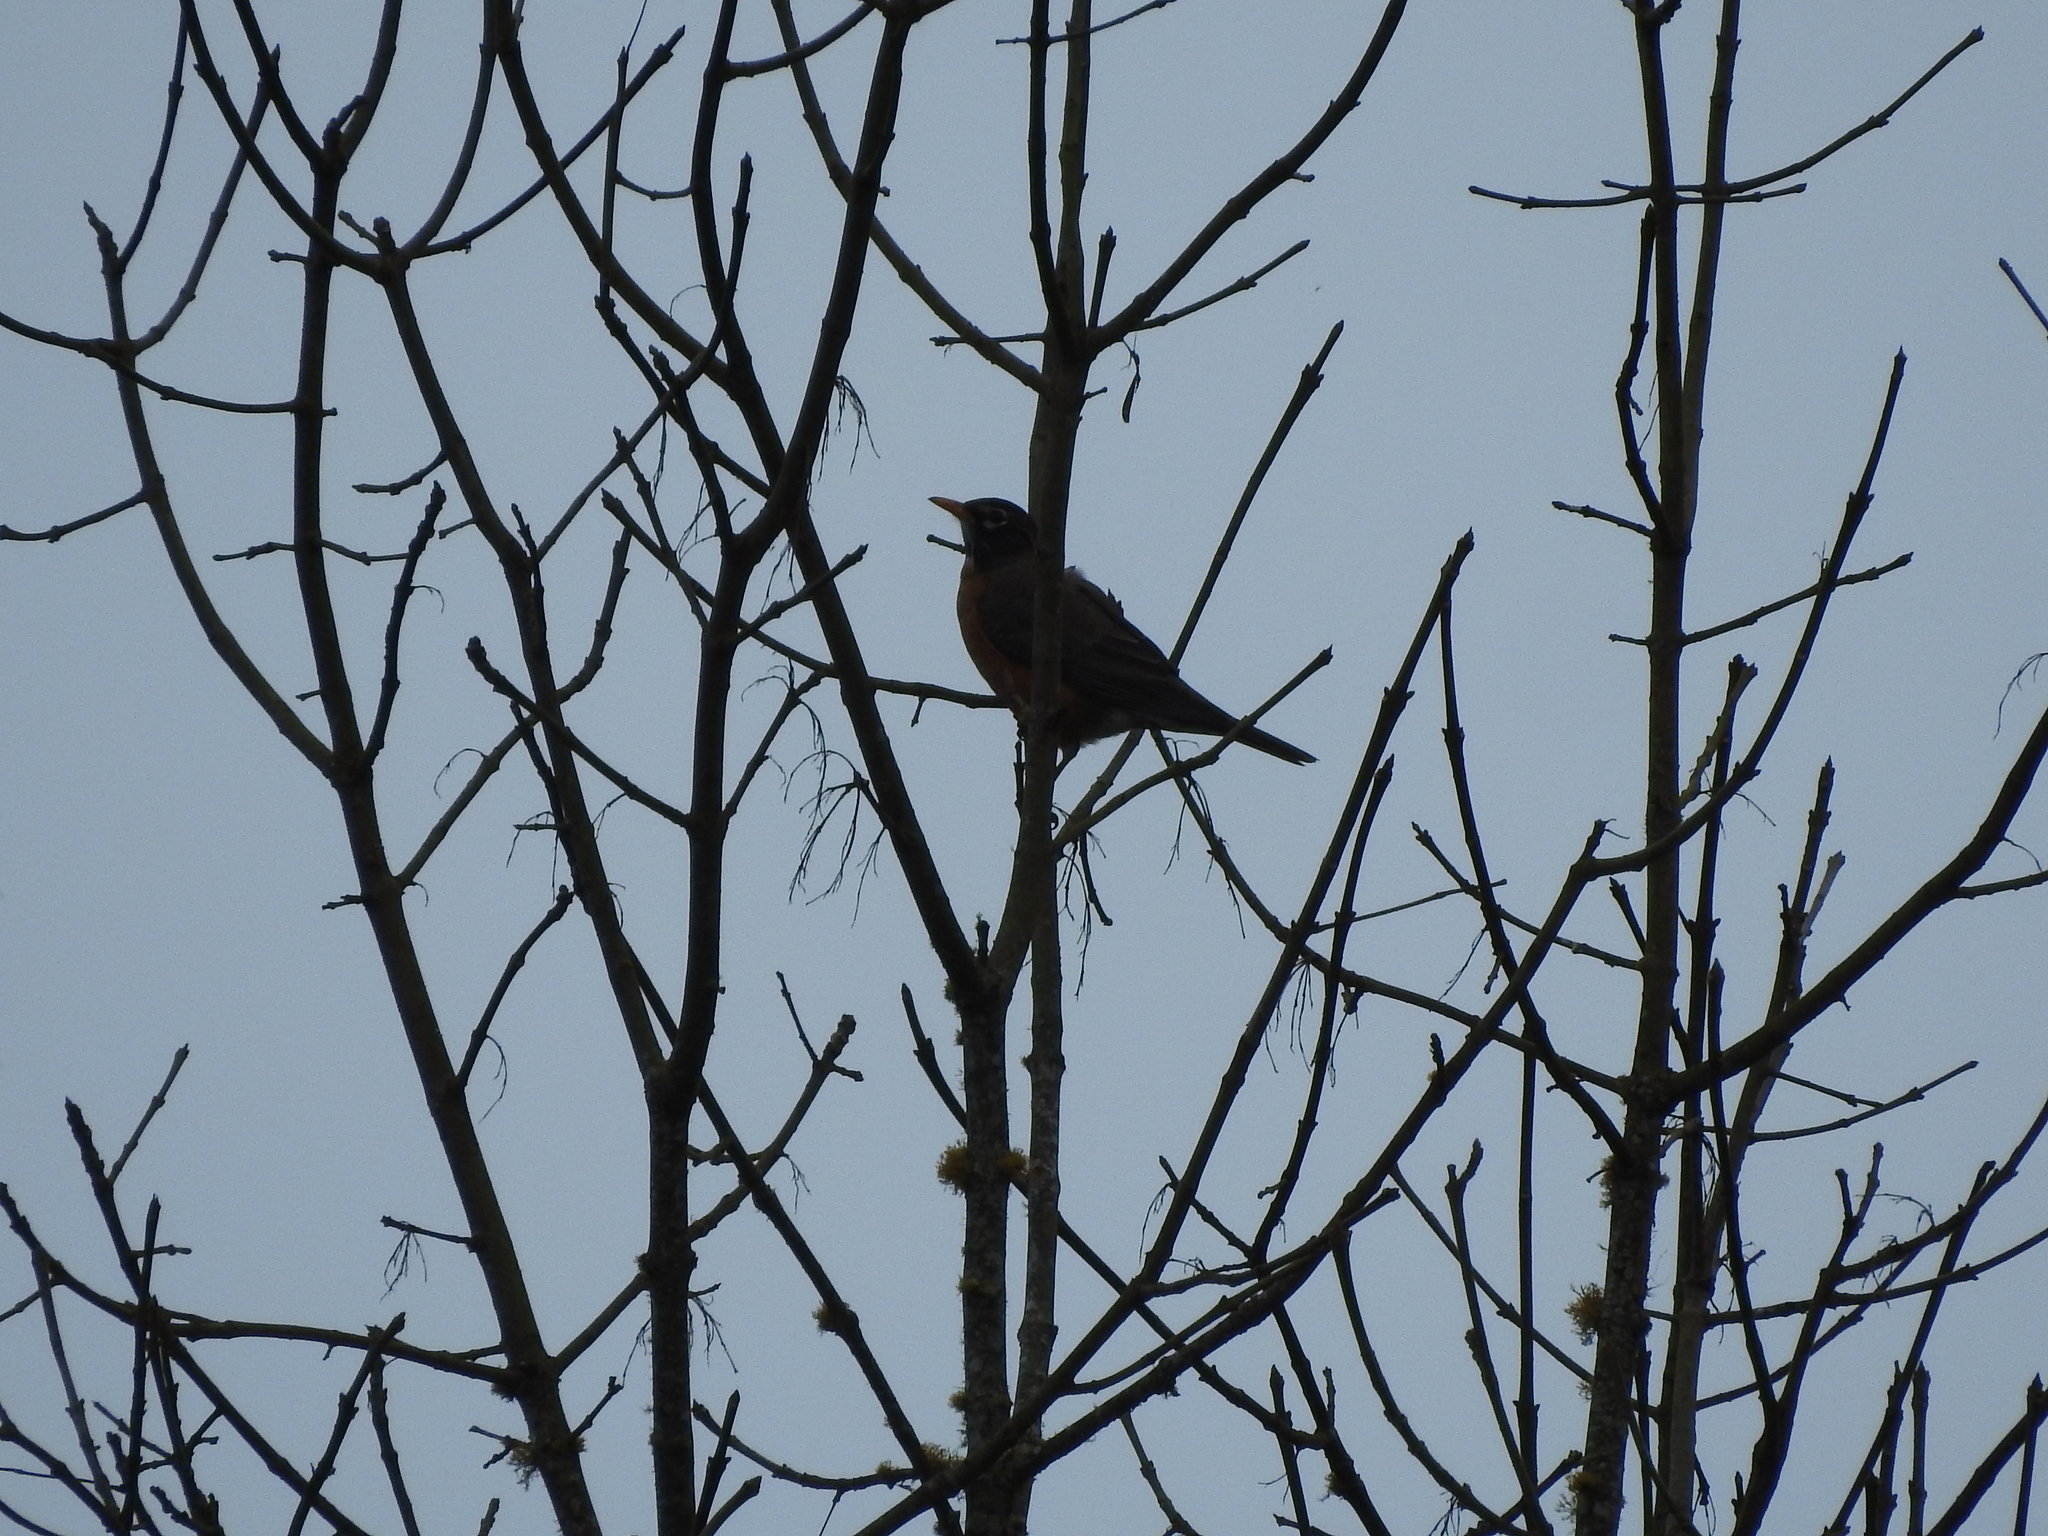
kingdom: Animalia
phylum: Chordata
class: Aves
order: Passeriformes
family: Turdidae
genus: Turdus
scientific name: Turdus migratorius
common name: American robin
